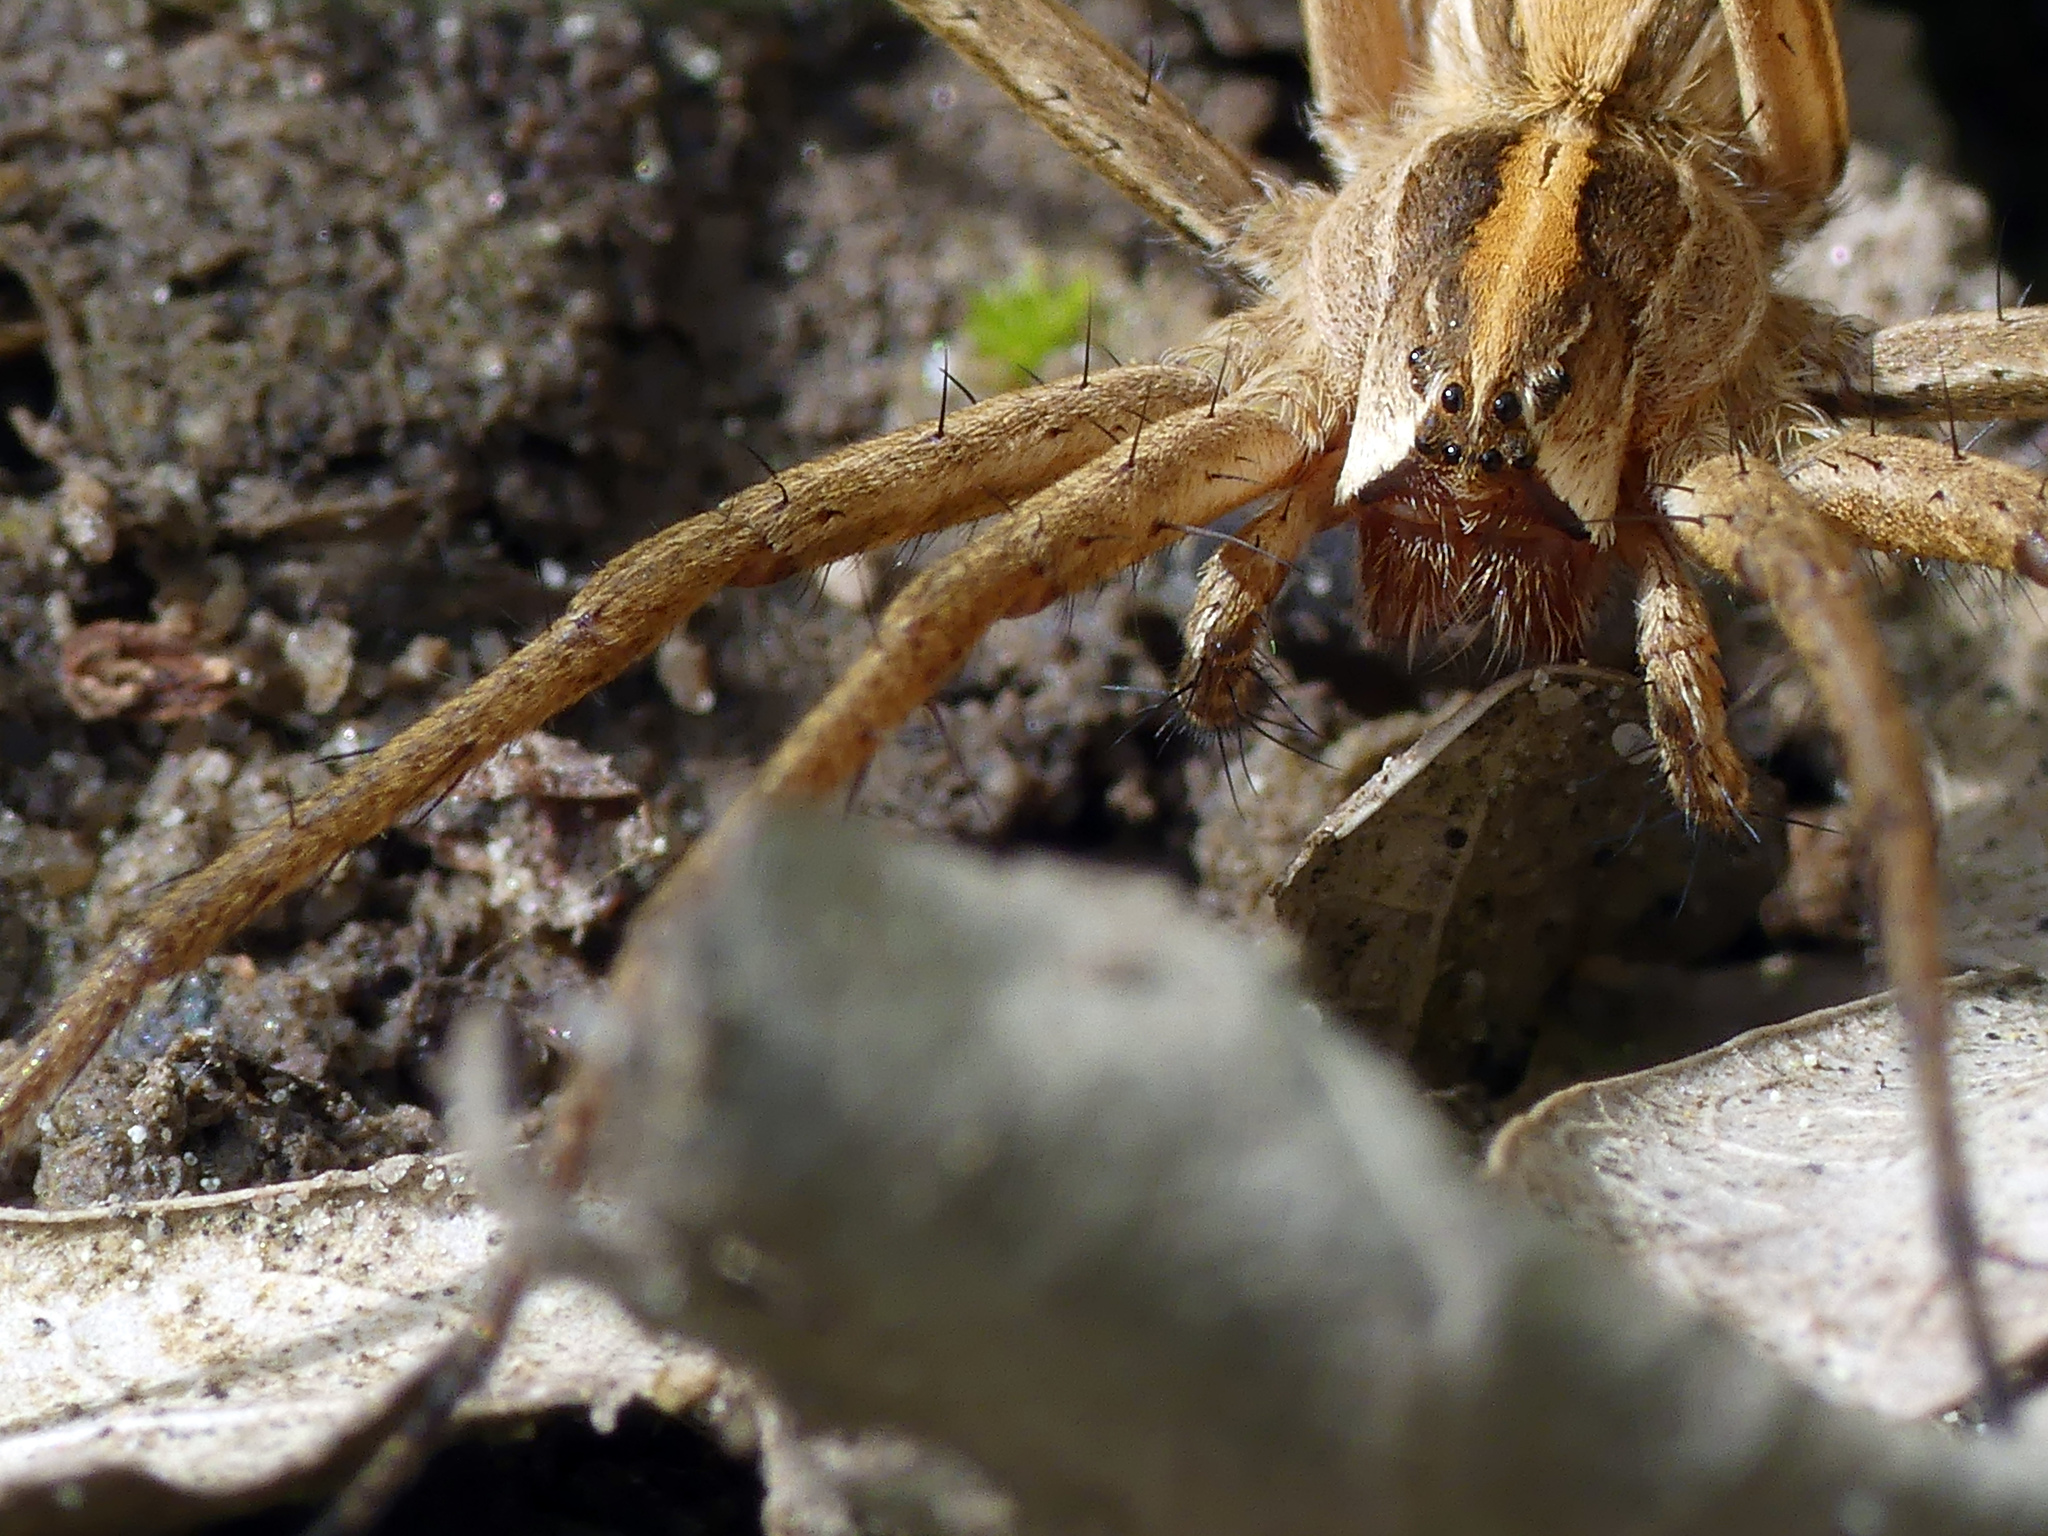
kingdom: Animalia
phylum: Arthropoda
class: Arachnida
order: Araneae
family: Pisauridae
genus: Pisaura
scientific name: Pisaura mirabilis
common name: Tent spider
